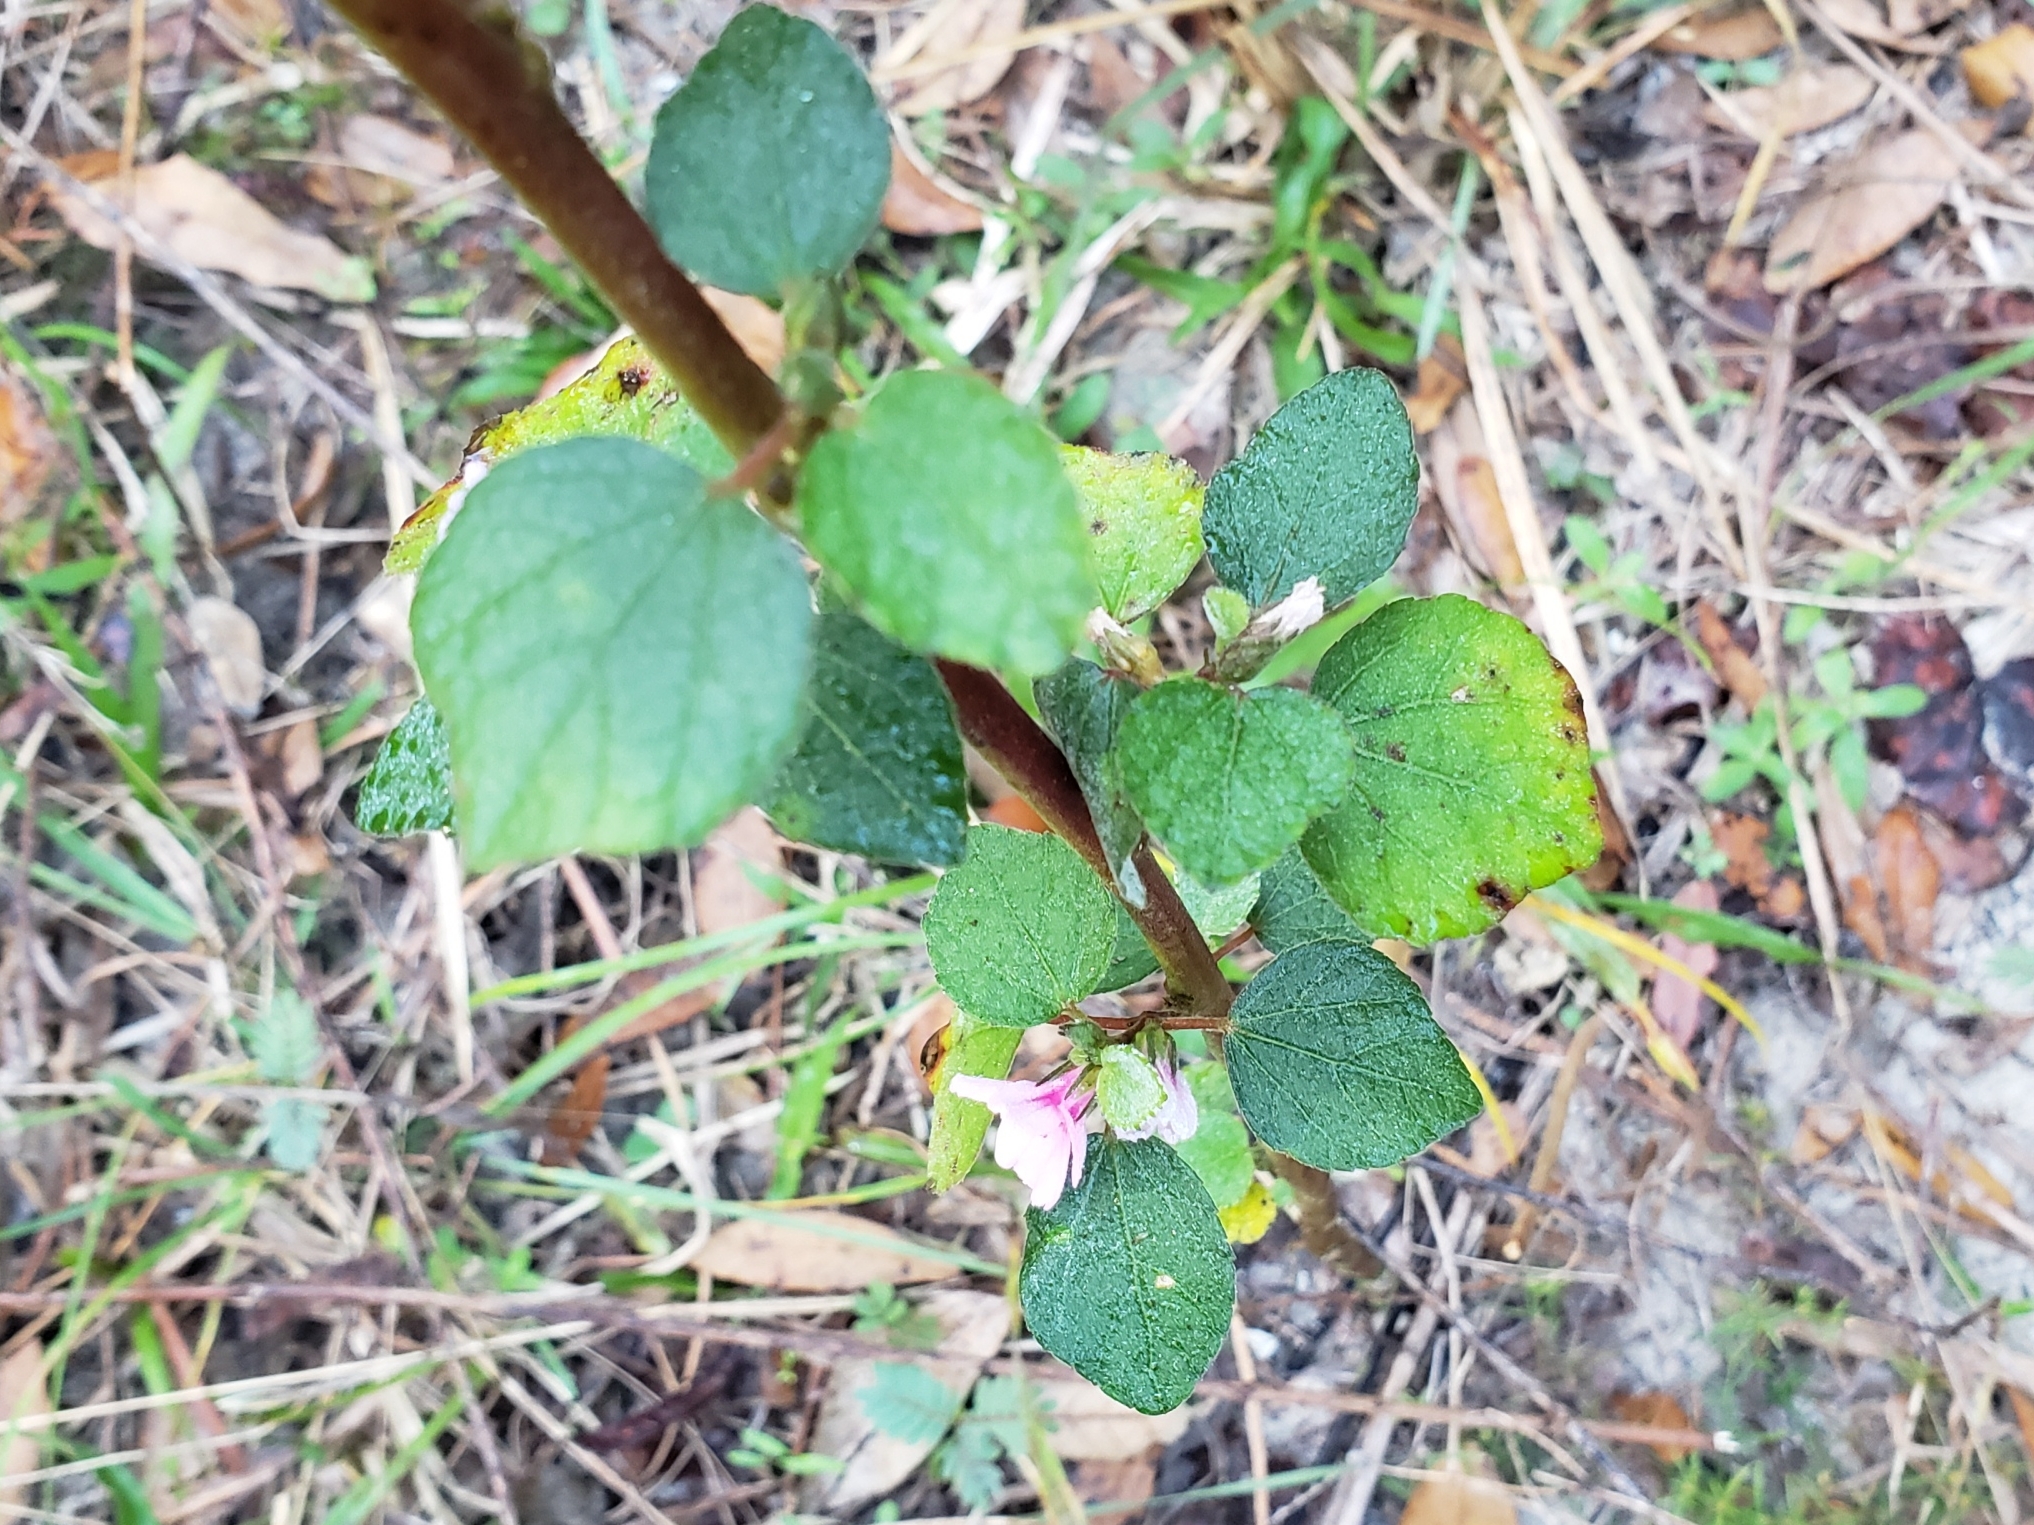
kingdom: Plantae
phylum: Tracheophyta
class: Magnoliopsida
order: Malvales
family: Malvaceae
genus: Urena
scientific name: Urena lobata
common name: Caesarweed
